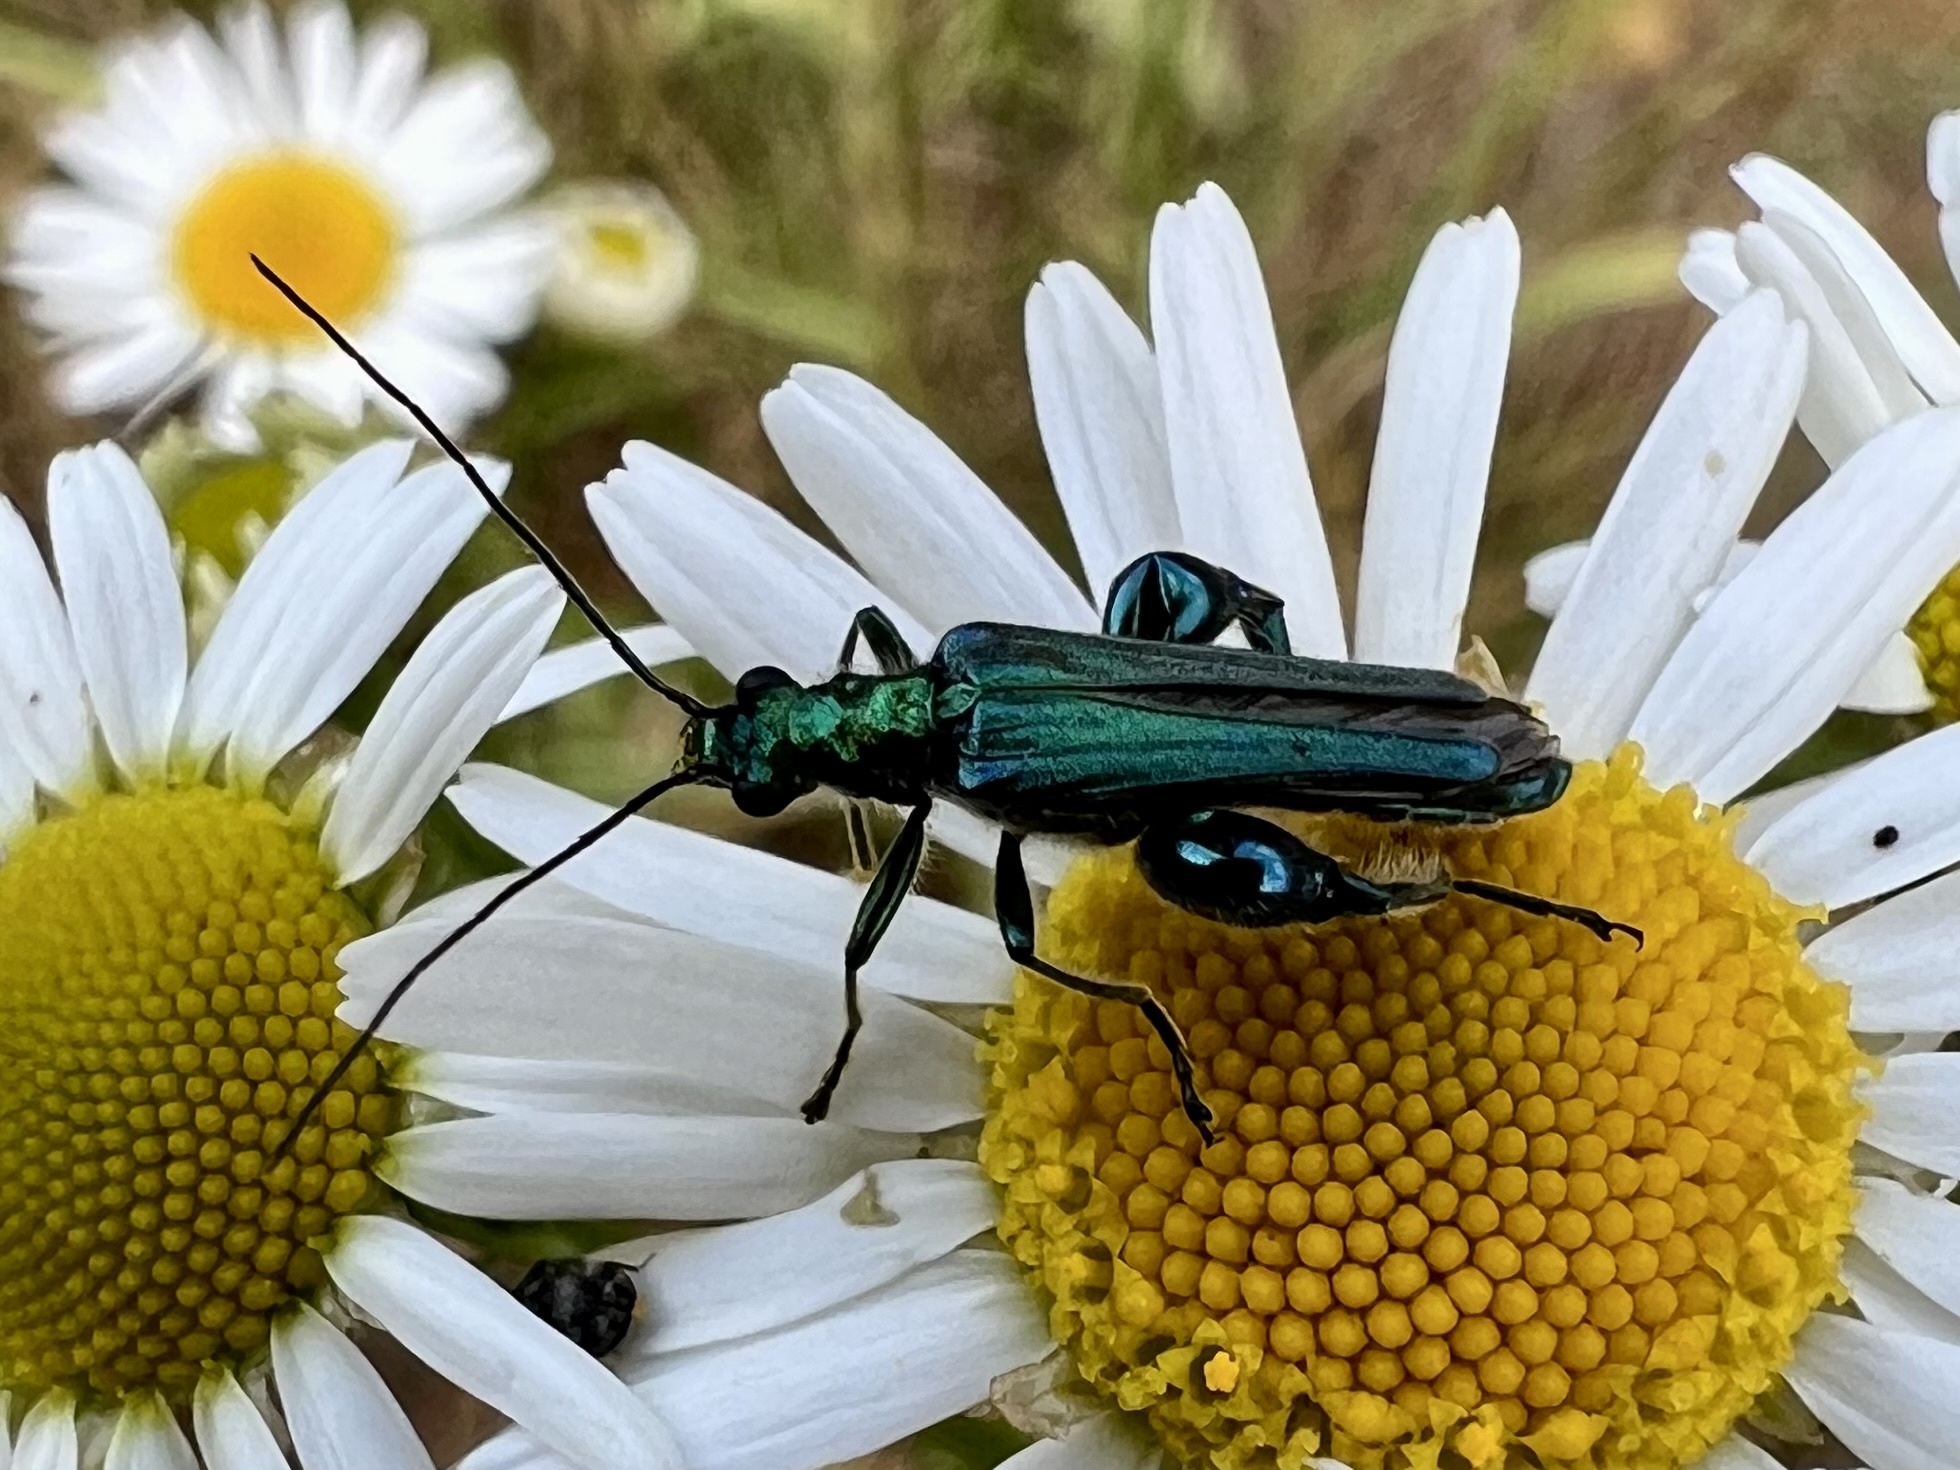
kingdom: Animalia
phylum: Arthropoda
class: Insecta
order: Coleoptera
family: Oedemeridae
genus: Oedemera
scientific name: Oedemera nobilis
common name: Swollen-thighed beetle
